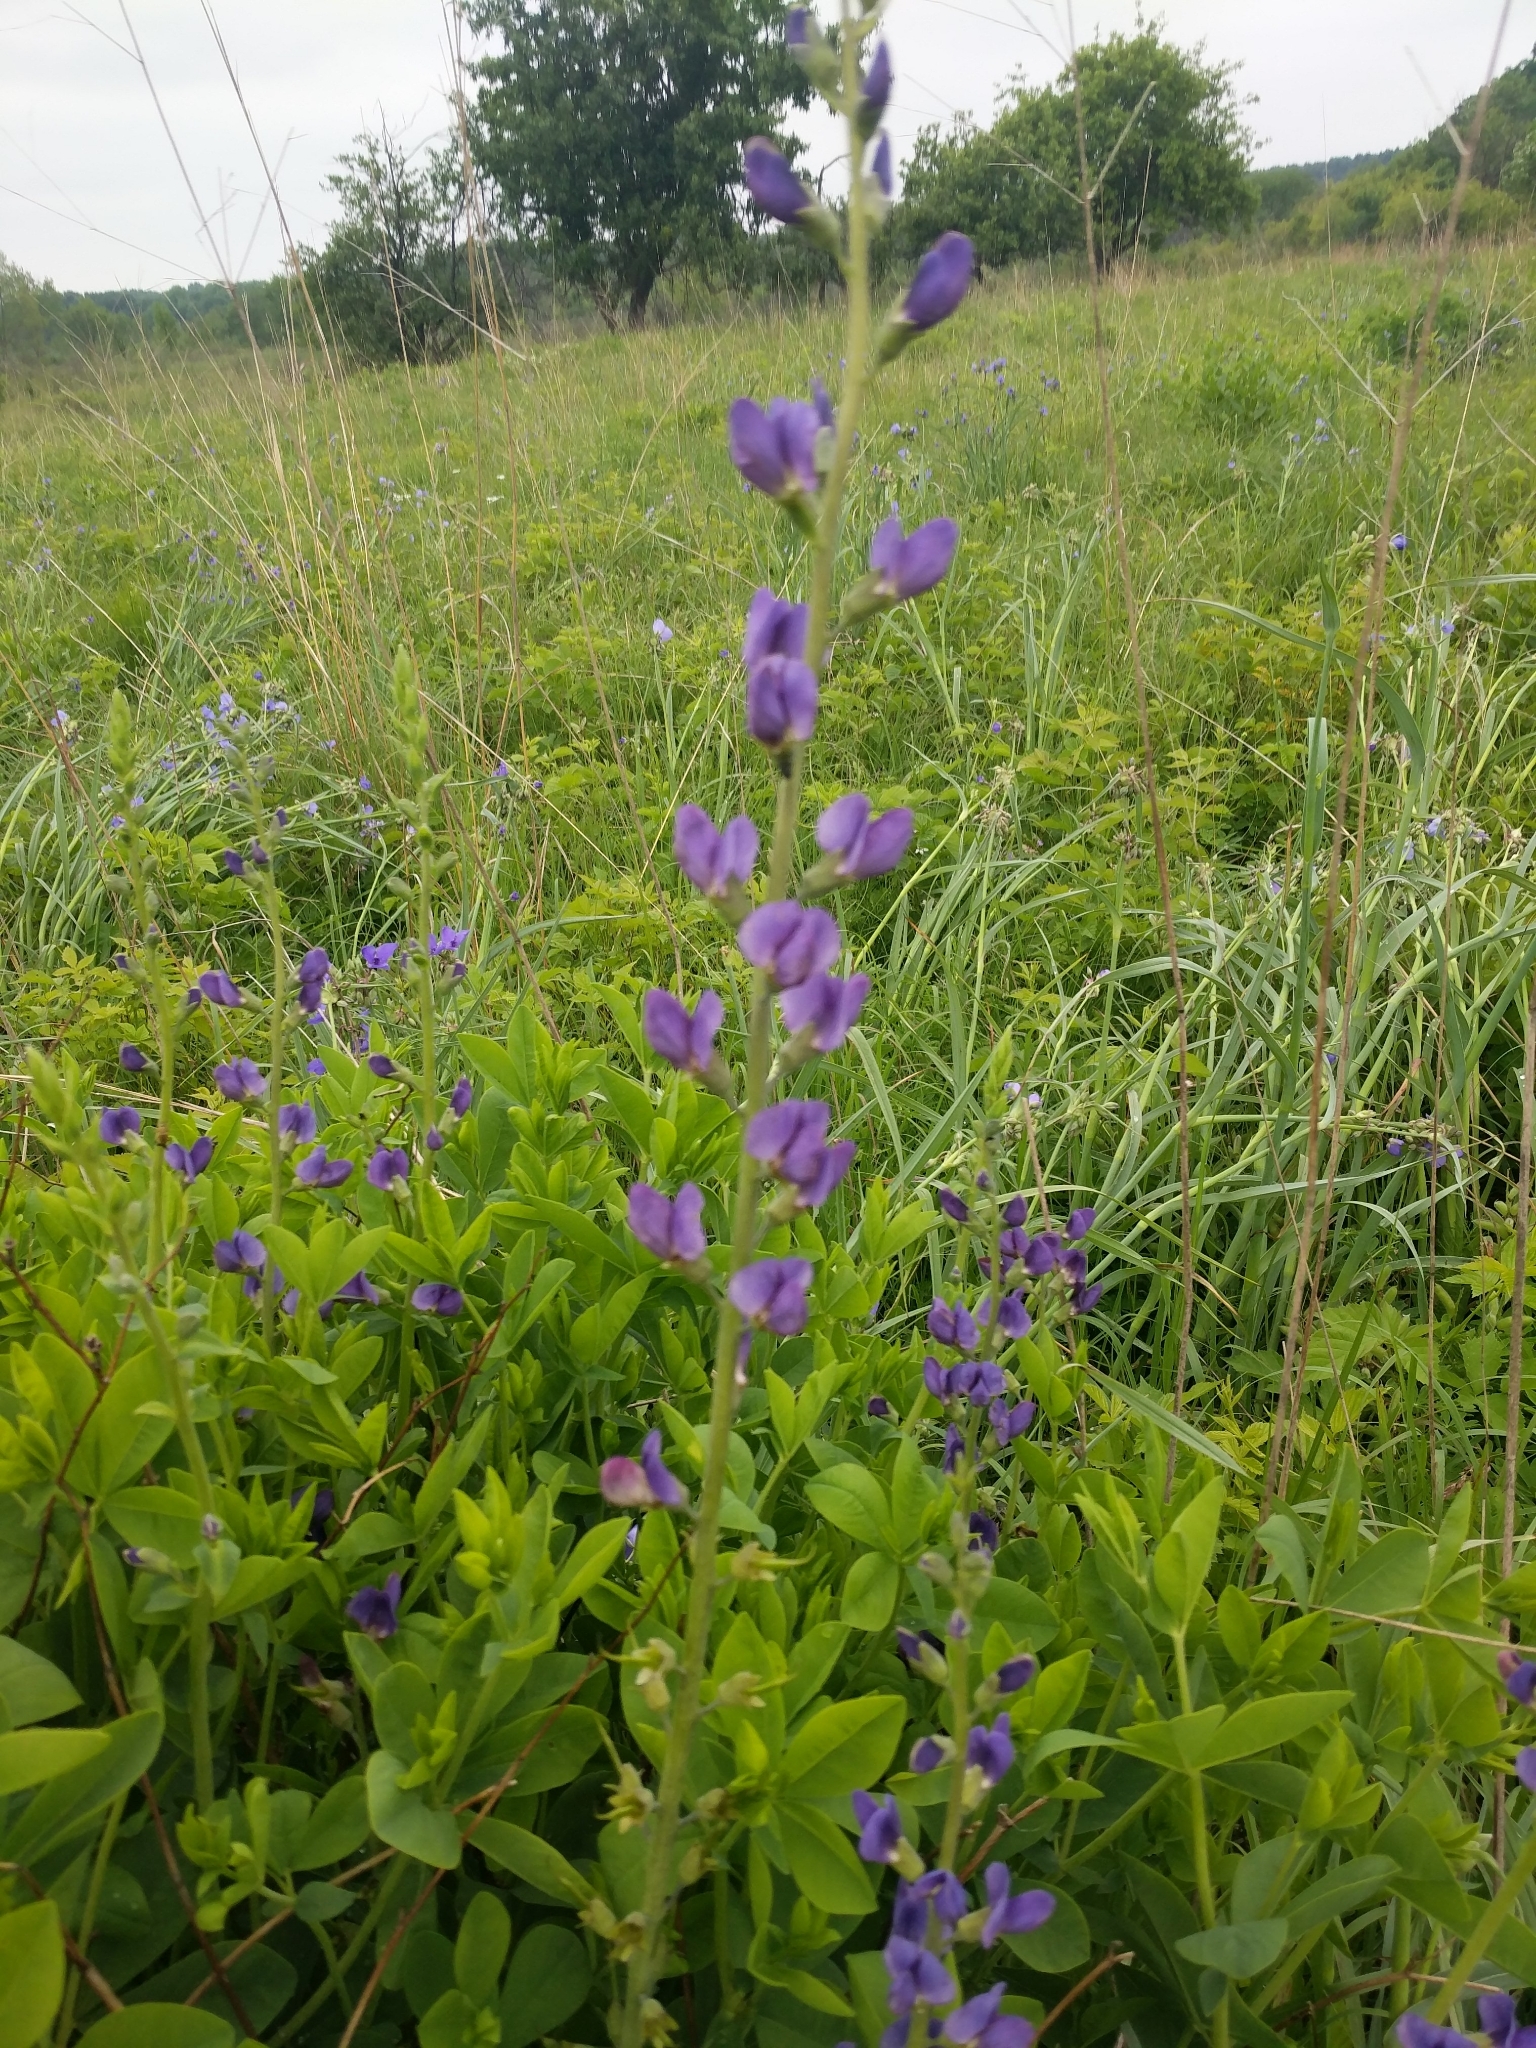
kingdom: Plantae
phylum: Tracheophyta
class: Magnoliopsida
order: Fabales
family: Fabaceae
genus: Baptisia
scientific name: Baptisia australis
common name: Blue false indigo
